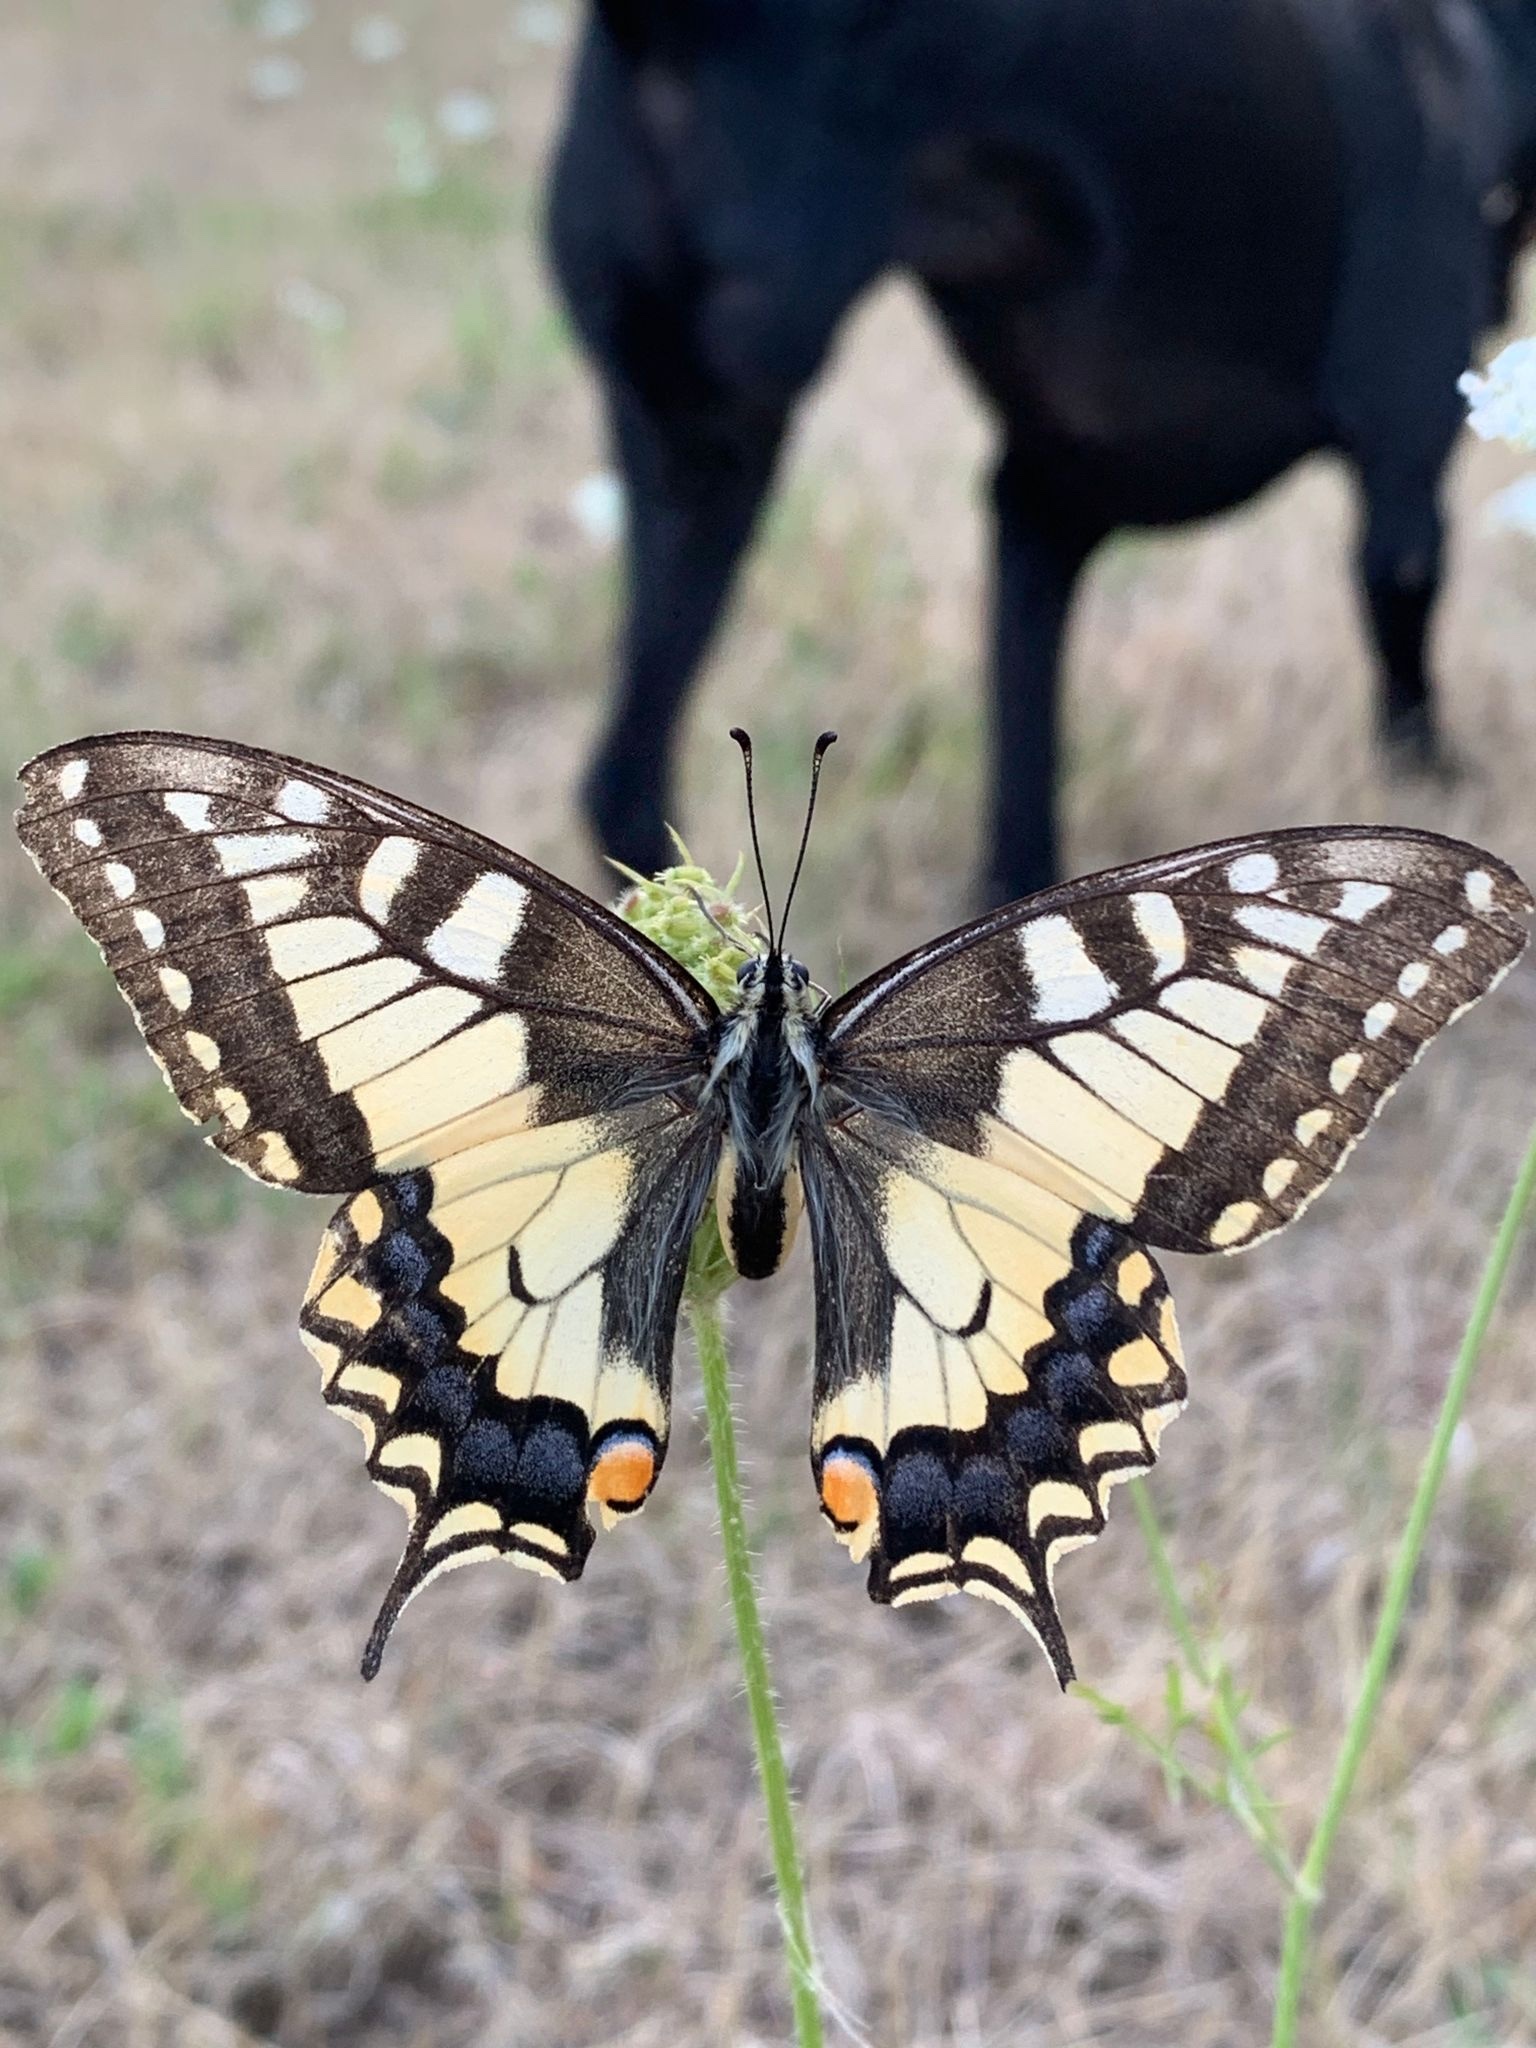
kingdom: Animalia
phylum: Arthropoda
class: Insecta
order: Lepidoptera
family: Papilionidae
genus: Papilio
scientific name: Papilio machaon
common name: Swallowtail
